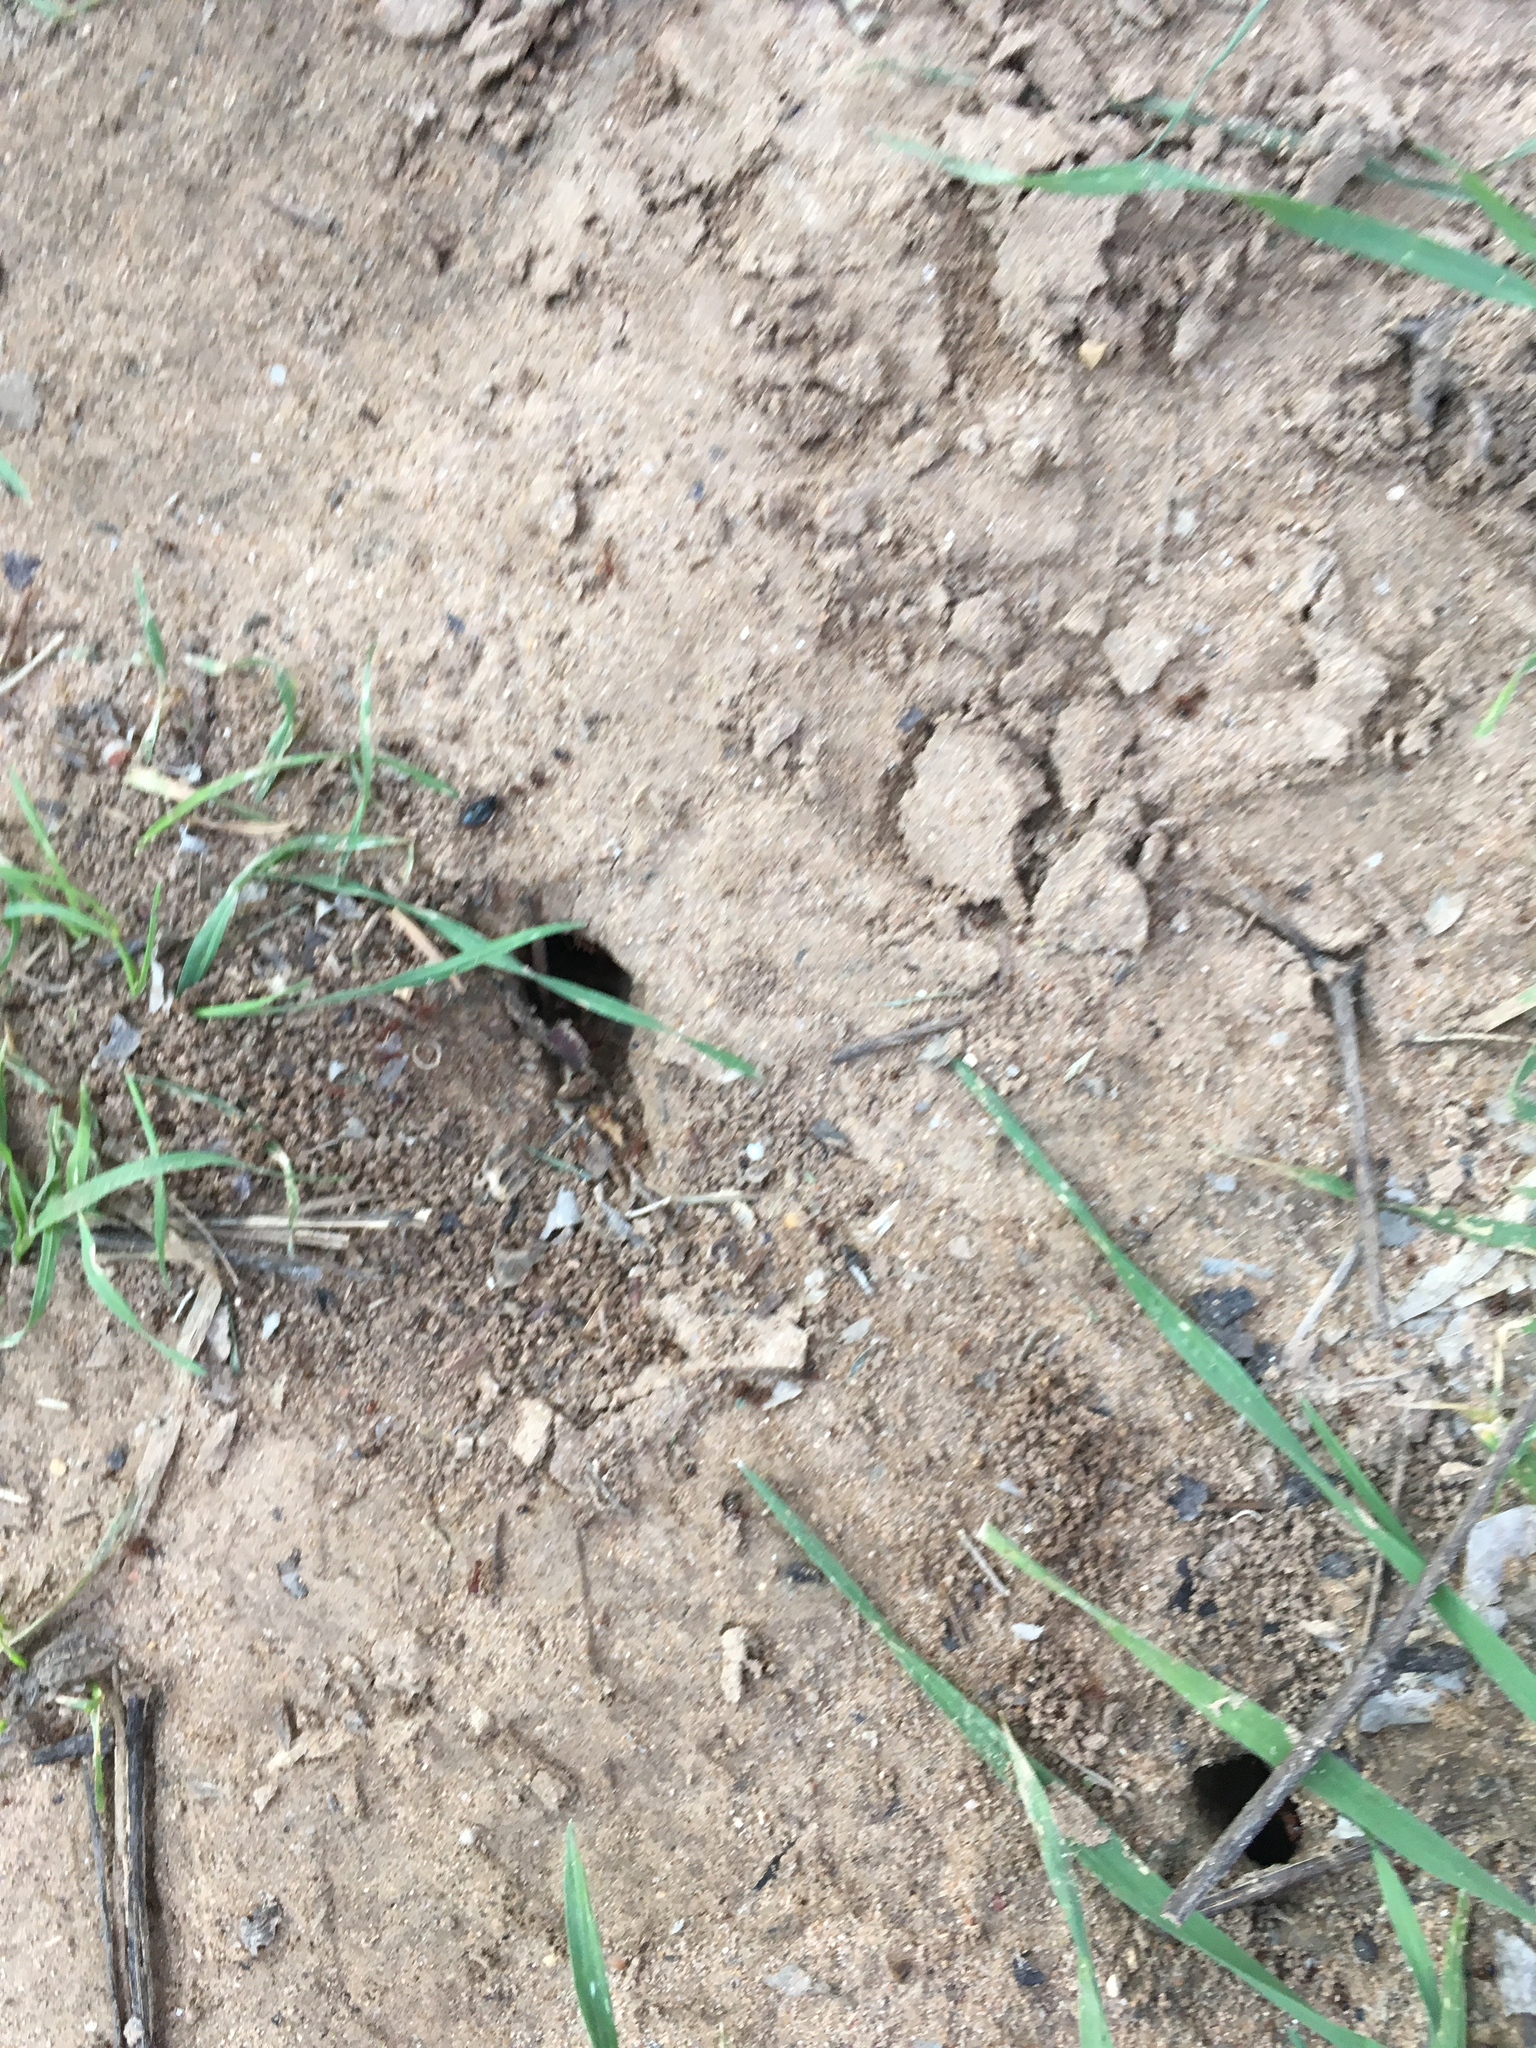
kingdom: Animalia
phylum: Arthropoda
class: Insecta
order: Hymenoptera
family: Formicidae
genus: Atta
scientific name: Atta texana
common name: Texas leafcutting ant
